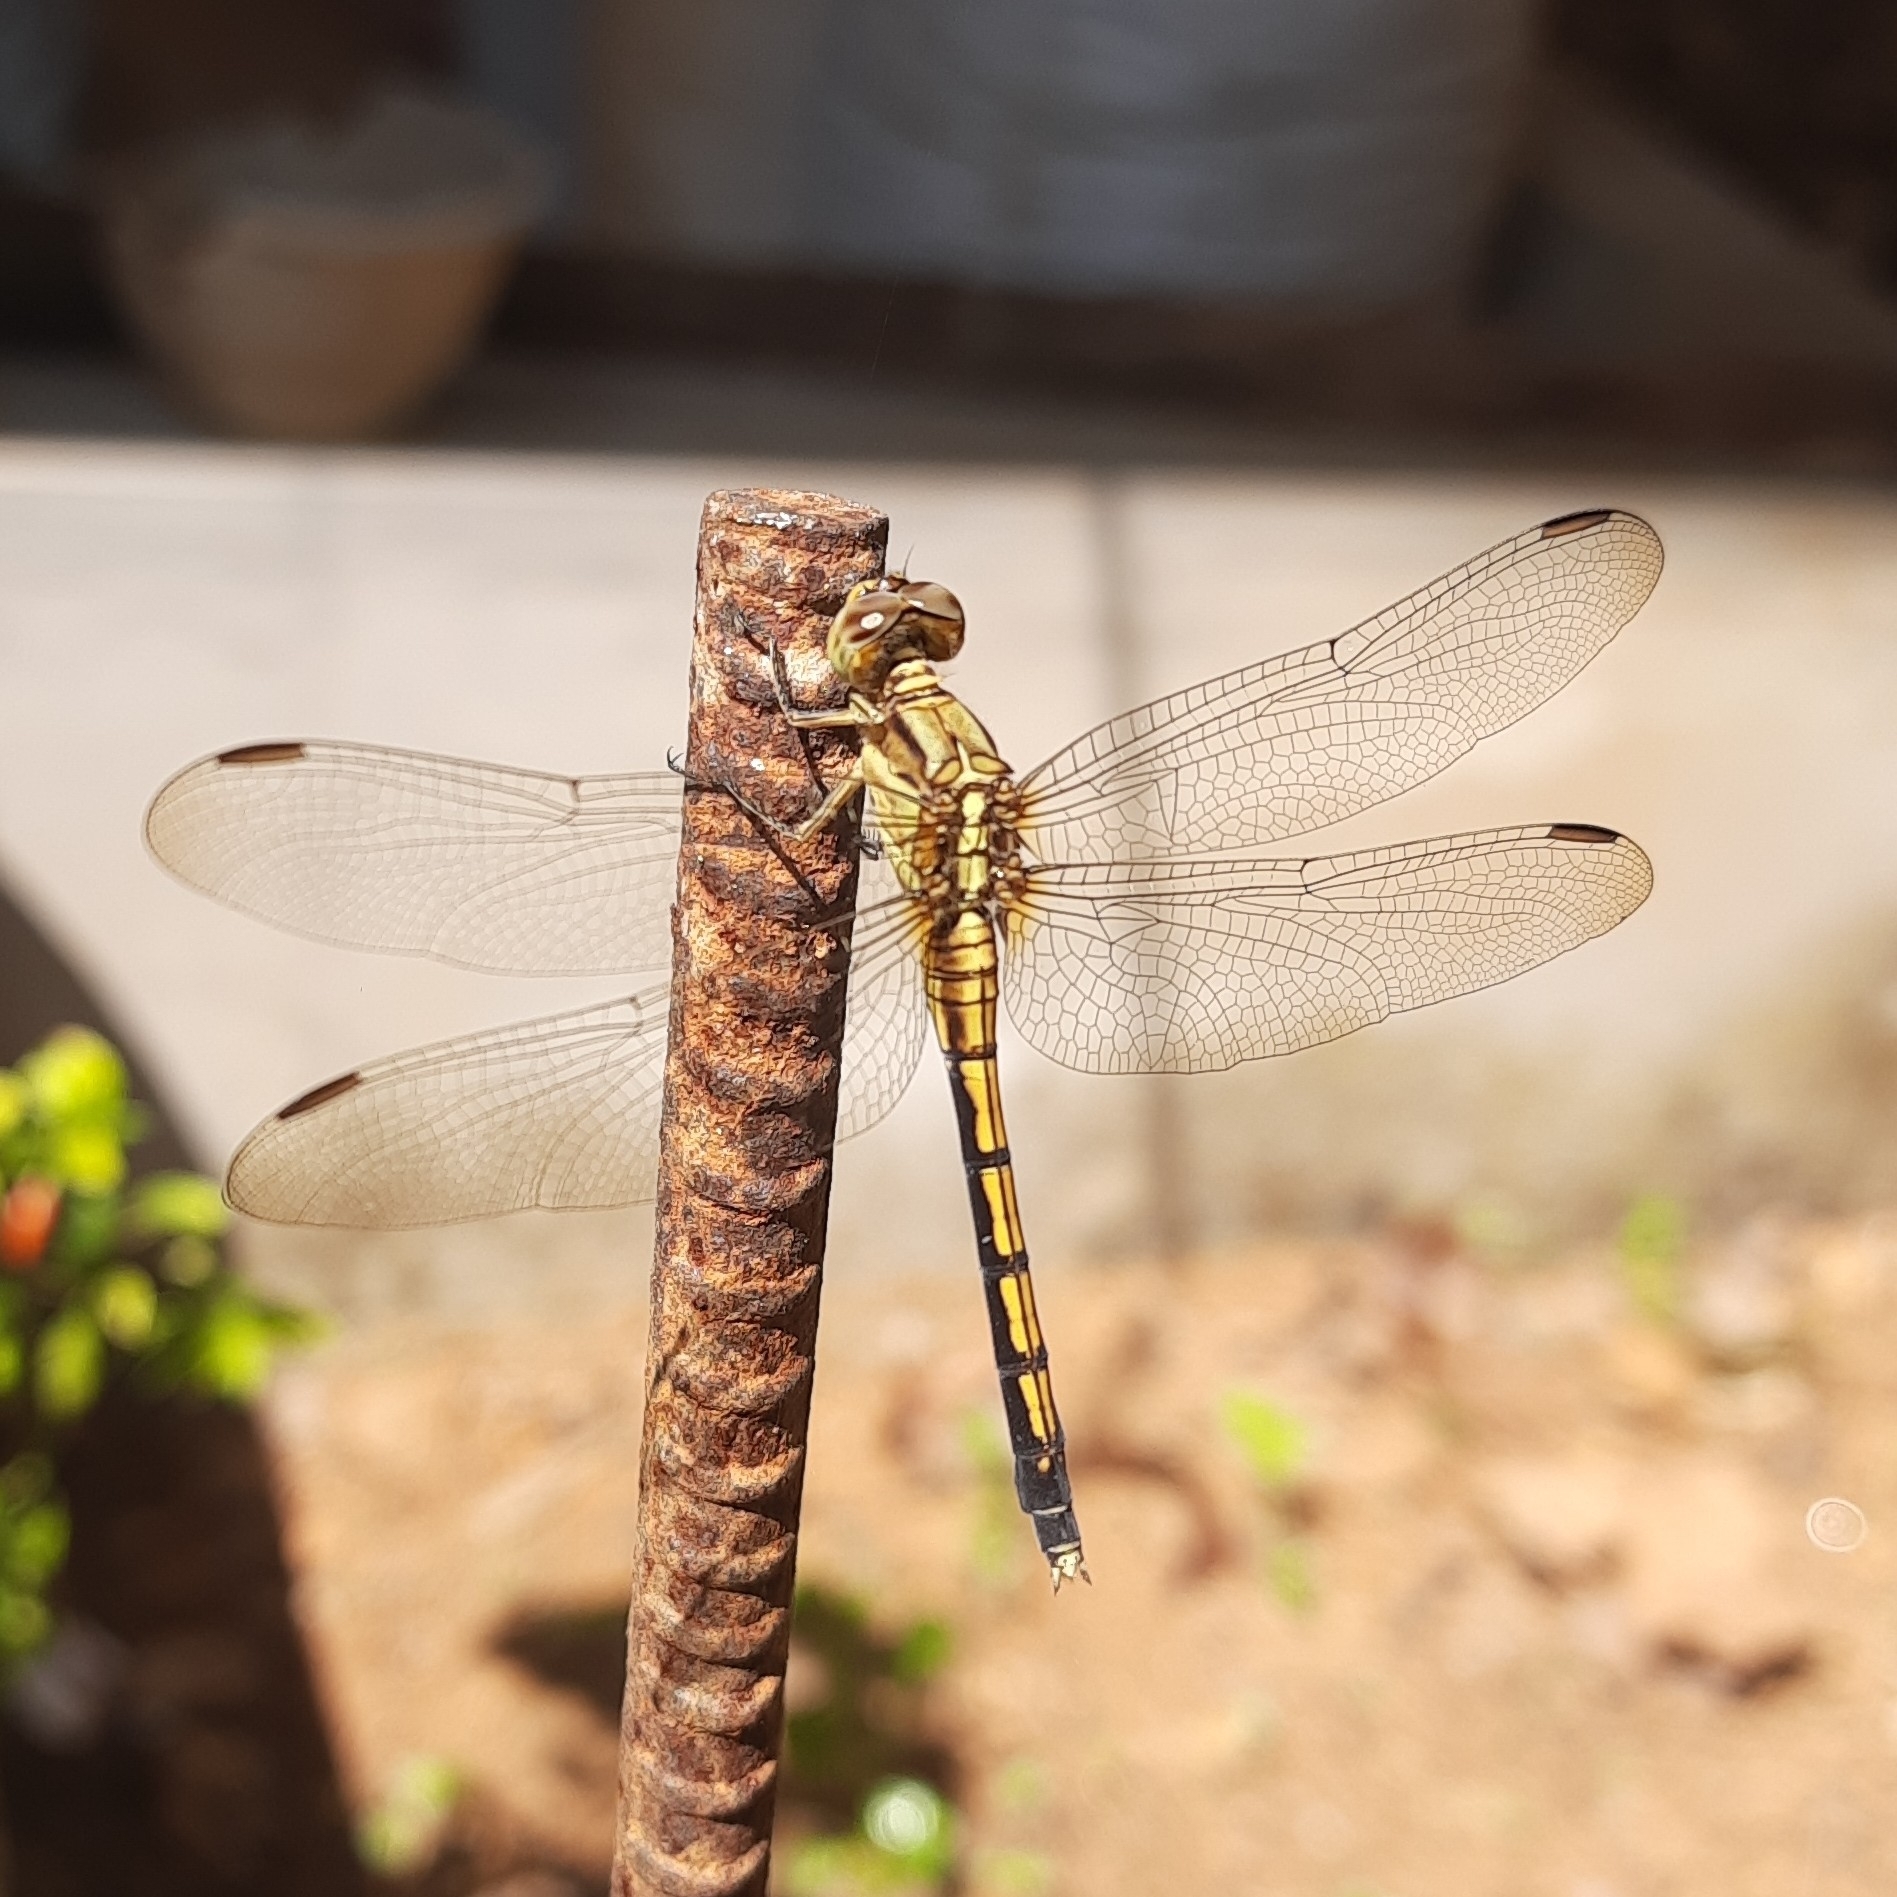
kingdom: Animalia
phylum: Arthropoda
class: Insecta
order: Odonata
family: Libellulidae
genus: Orthetrum
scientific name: Orthetrum luzonicum
